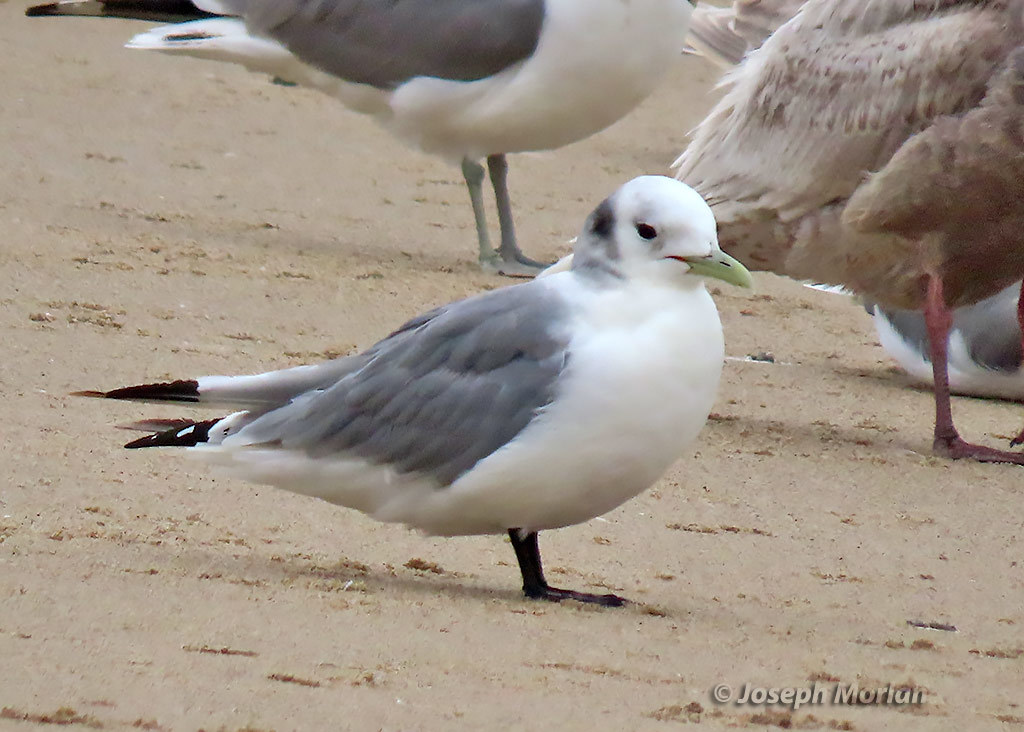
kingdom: Animalia
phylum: Chordata
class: Aves
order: Charadriiformes
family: Laridae
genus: Rissa
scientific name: Rissa tridactyla
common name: Black-legged kittiwake
